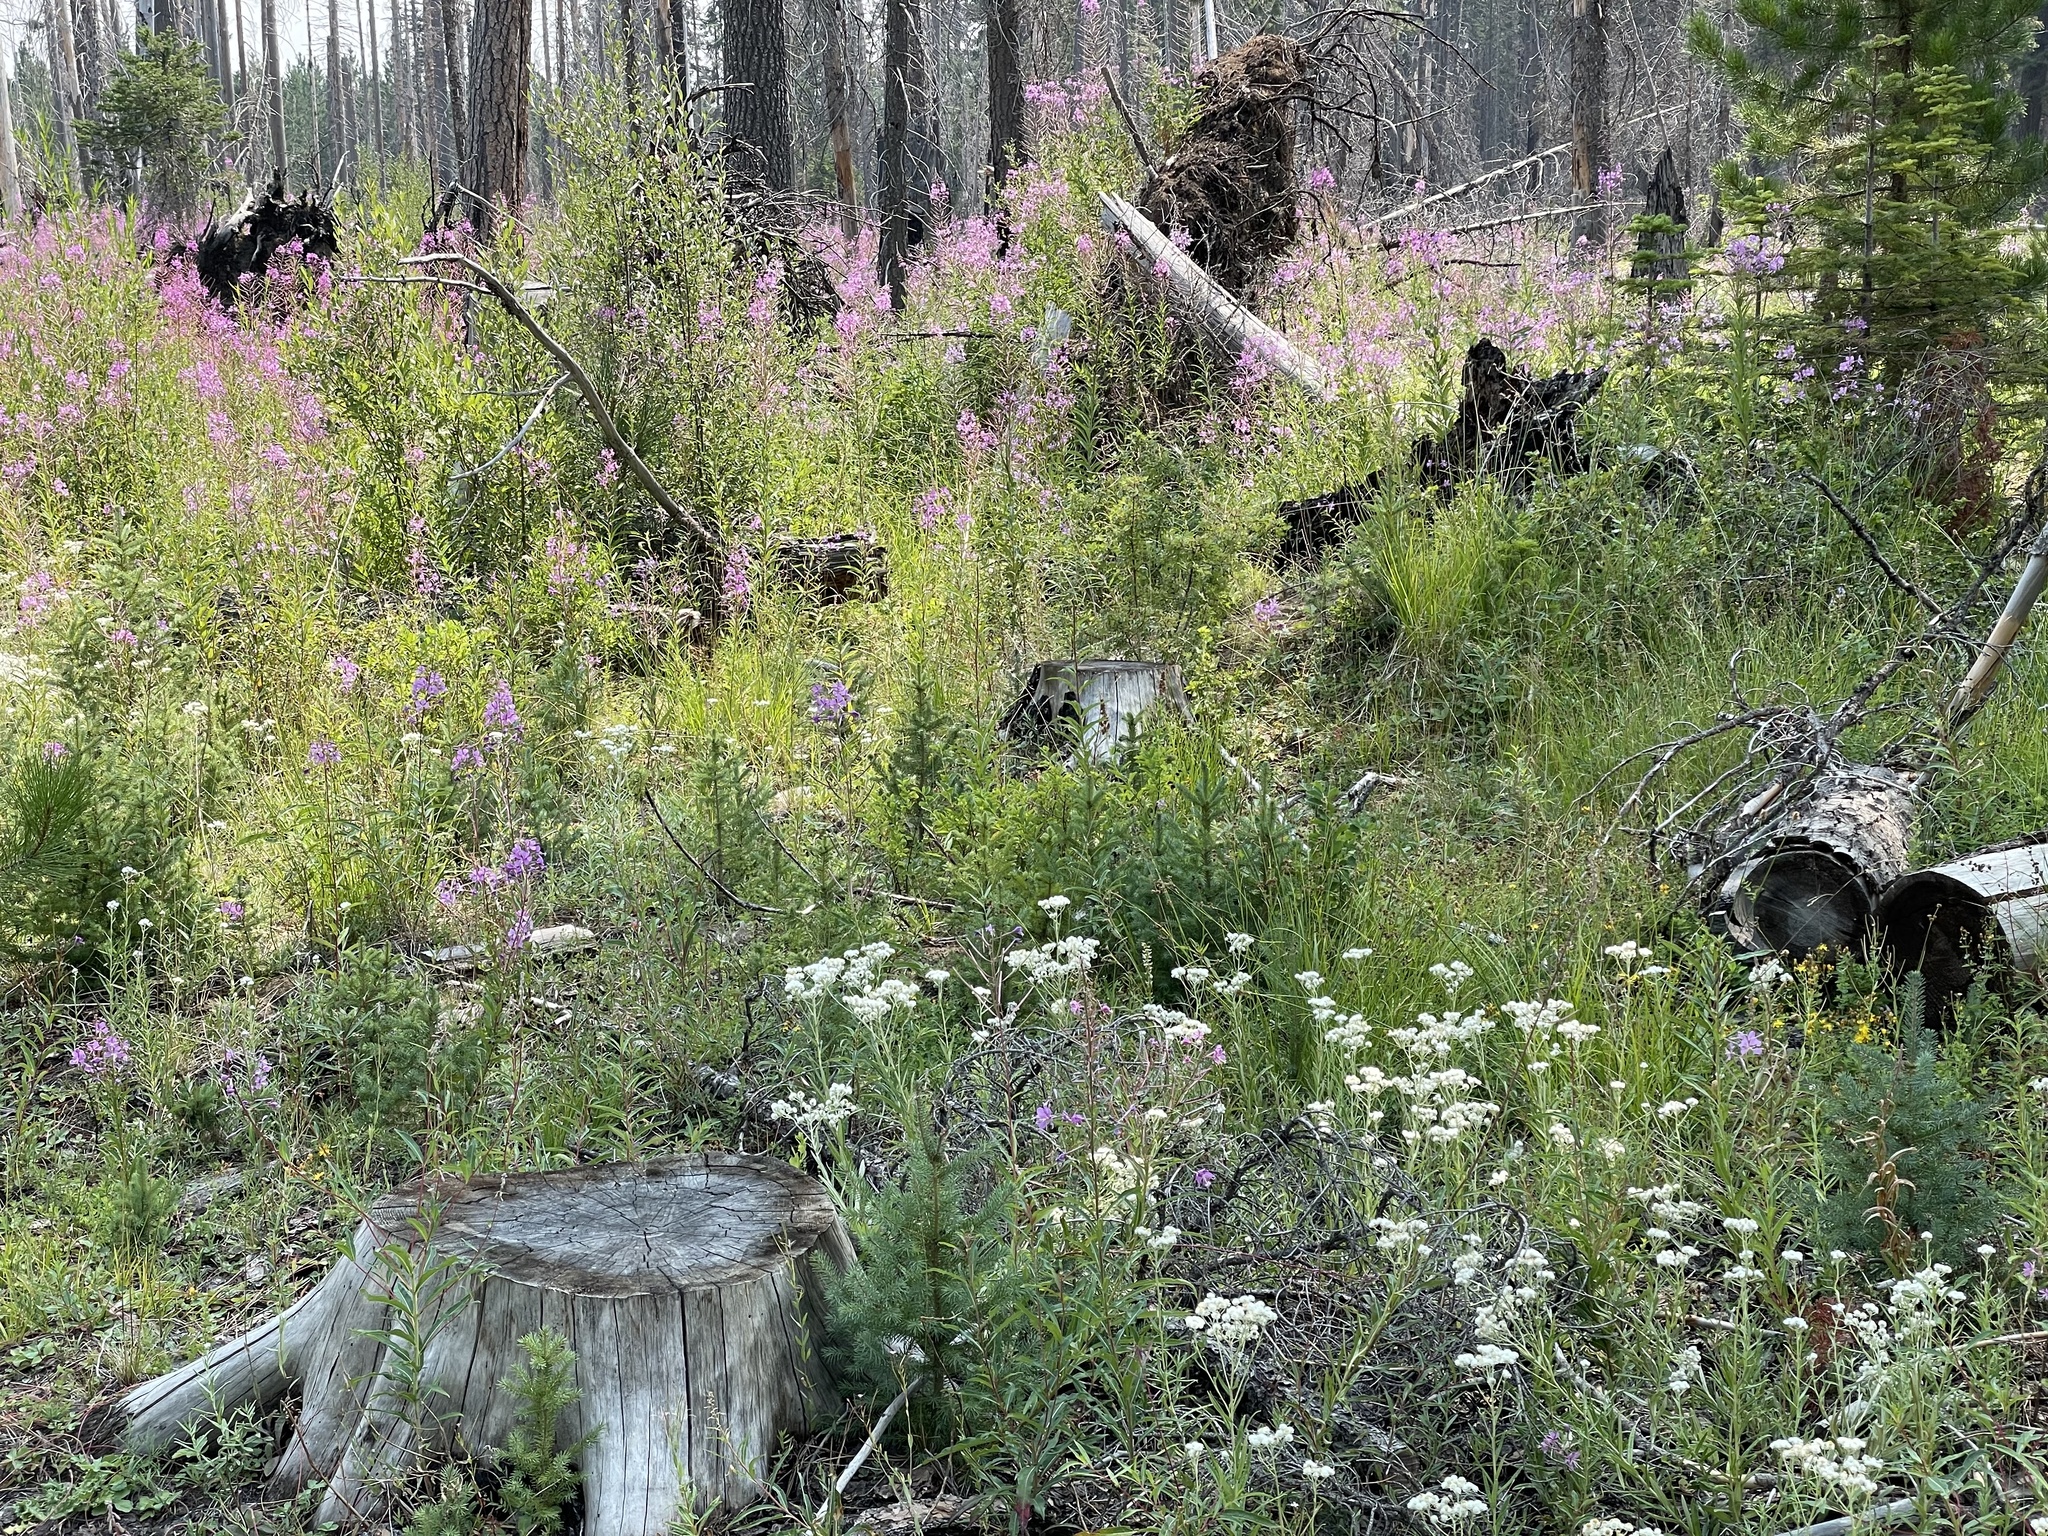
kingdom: Plantae
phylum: Tracheophyta
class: Magnoliopsida
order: Myrtales
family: Onagraceae
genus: Chamaenerion
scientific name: Chamaenerion angustifolium
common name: Fireweed
